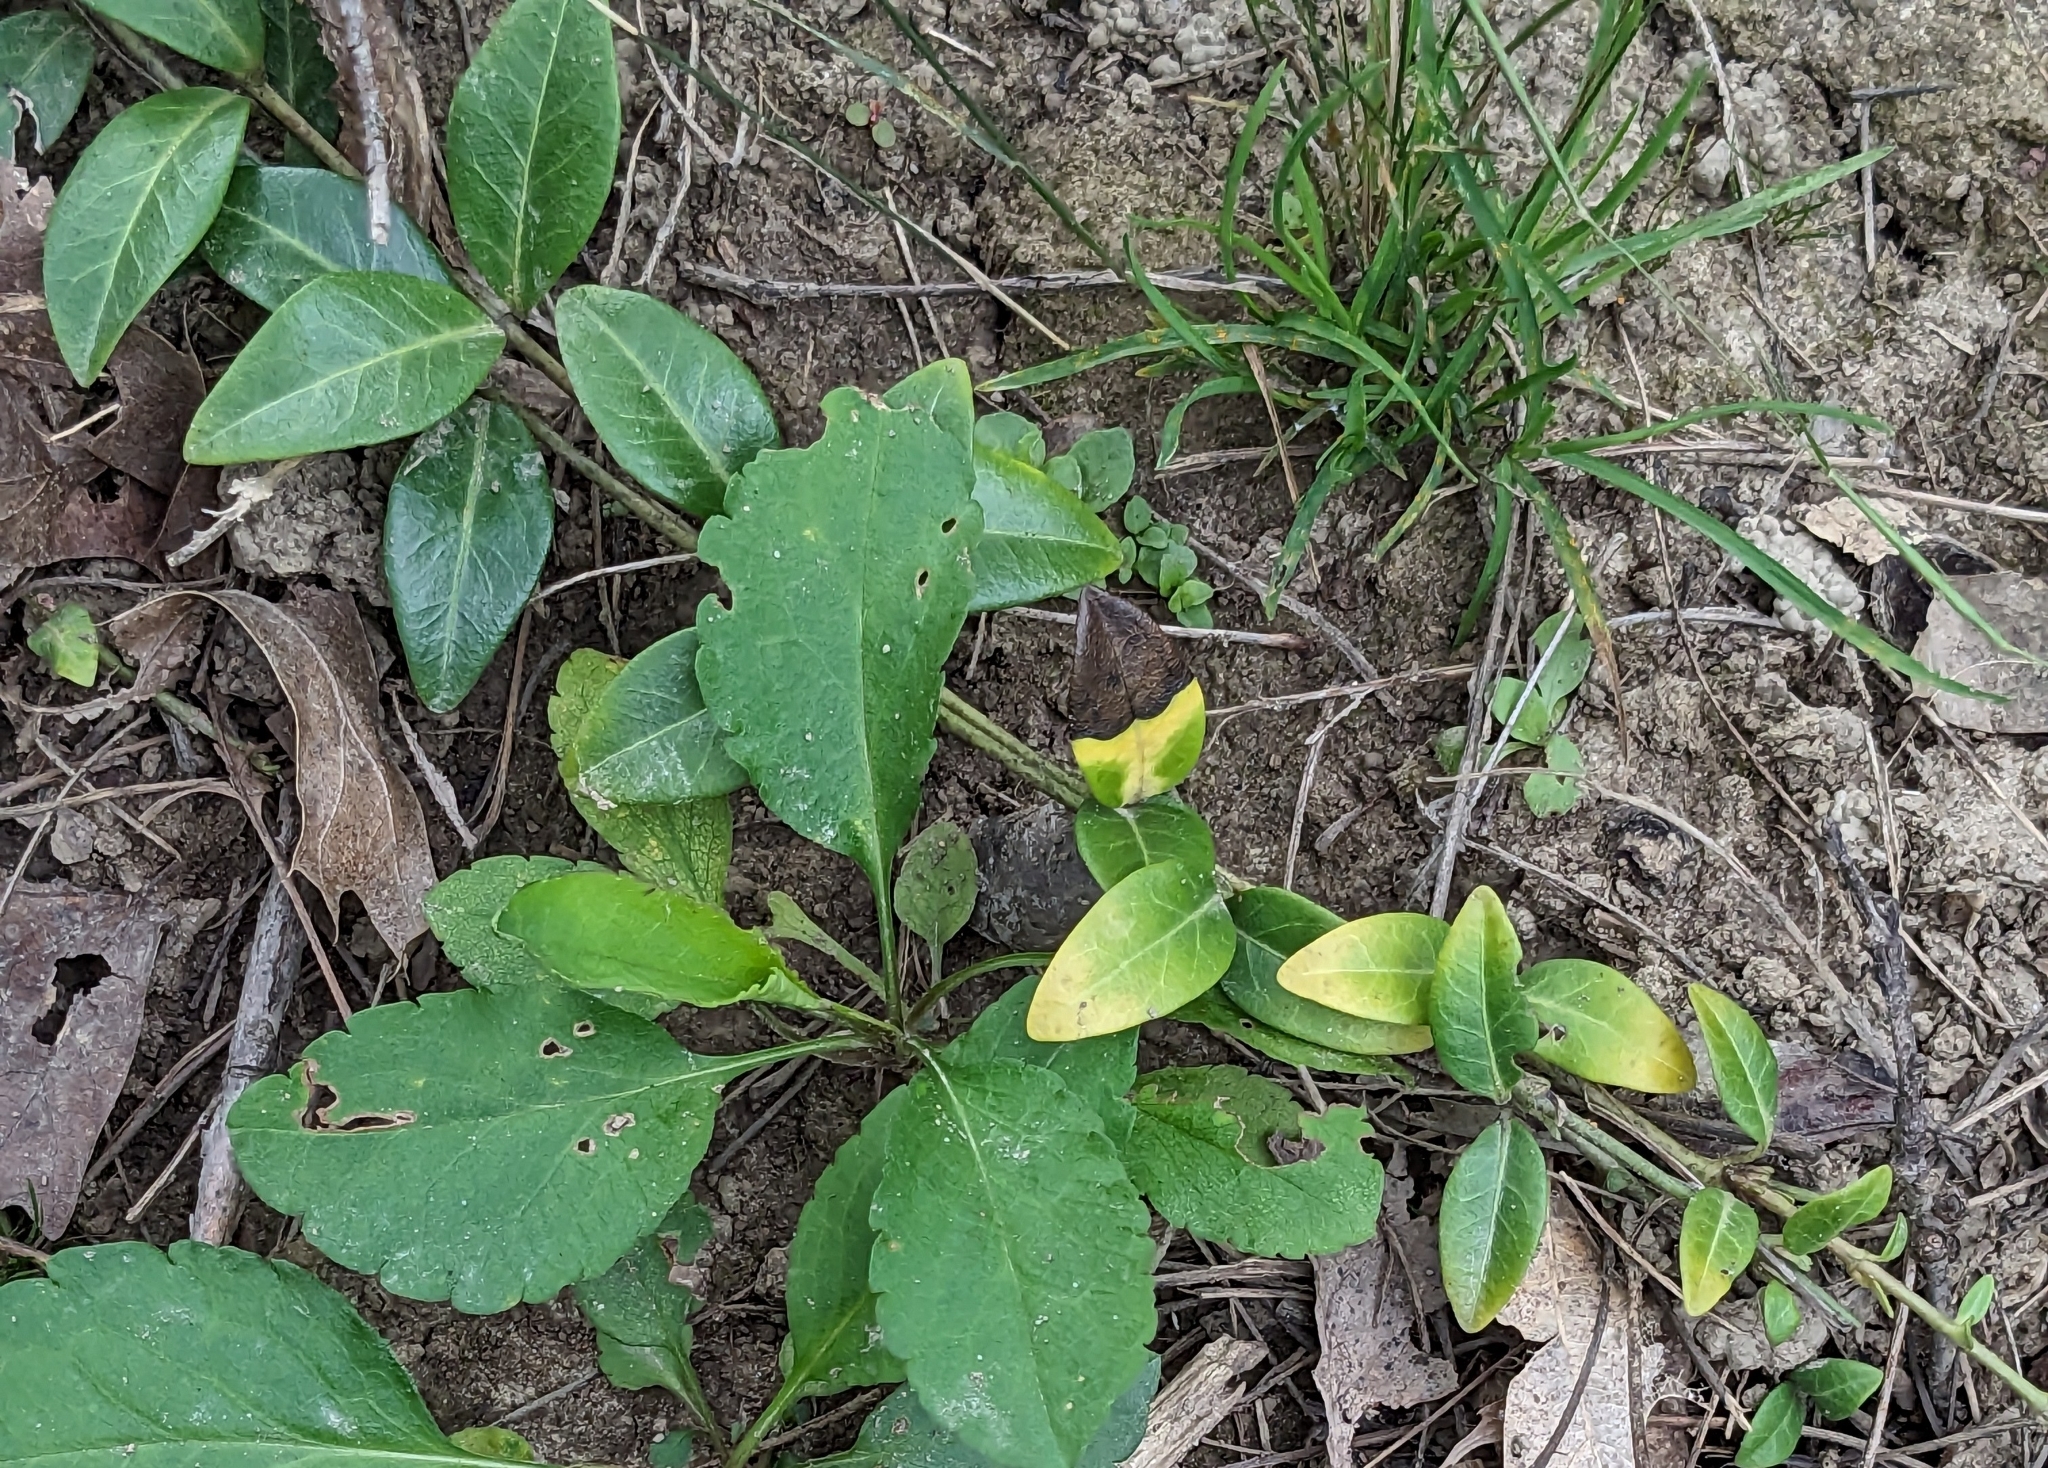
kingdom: Plantae
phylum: Tracheophyta
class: Magnoliopsida
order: Gentianales
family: Apocynaceae
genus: Vinca
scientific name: Vinca minor
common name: Lesser periwinkle
